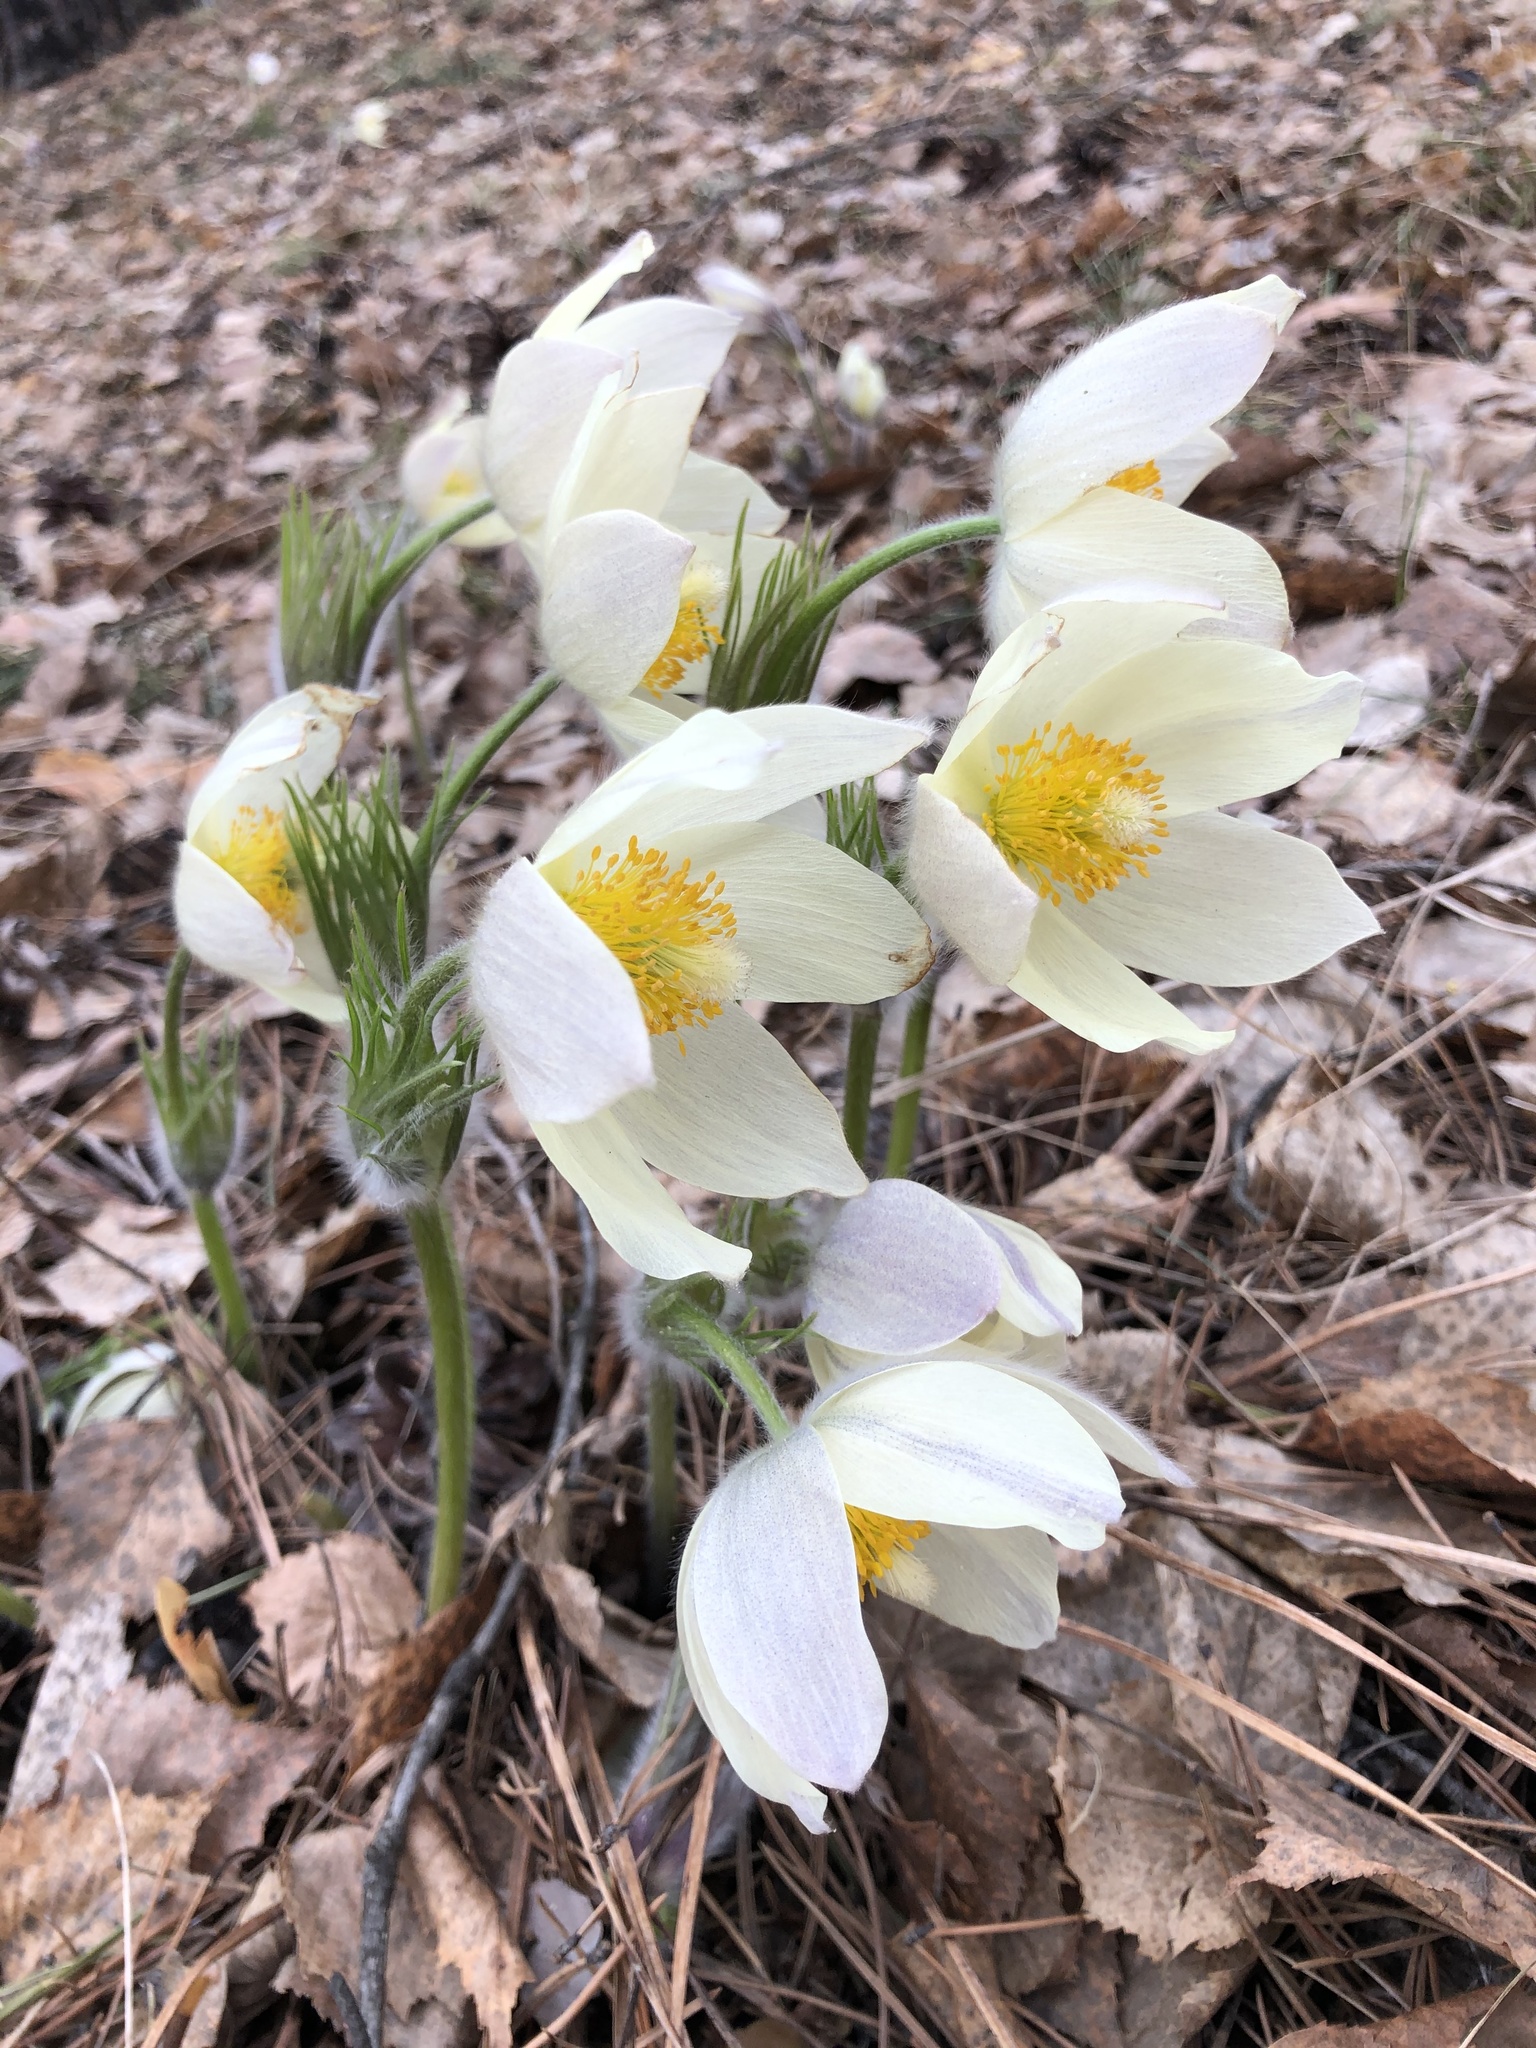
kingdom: Plantae
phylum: Tracheophyta
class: Magnoliopsida
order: Ranunculales
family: Ranunculaceae
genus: Pulsatilla
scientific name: Pulsatilla patens
